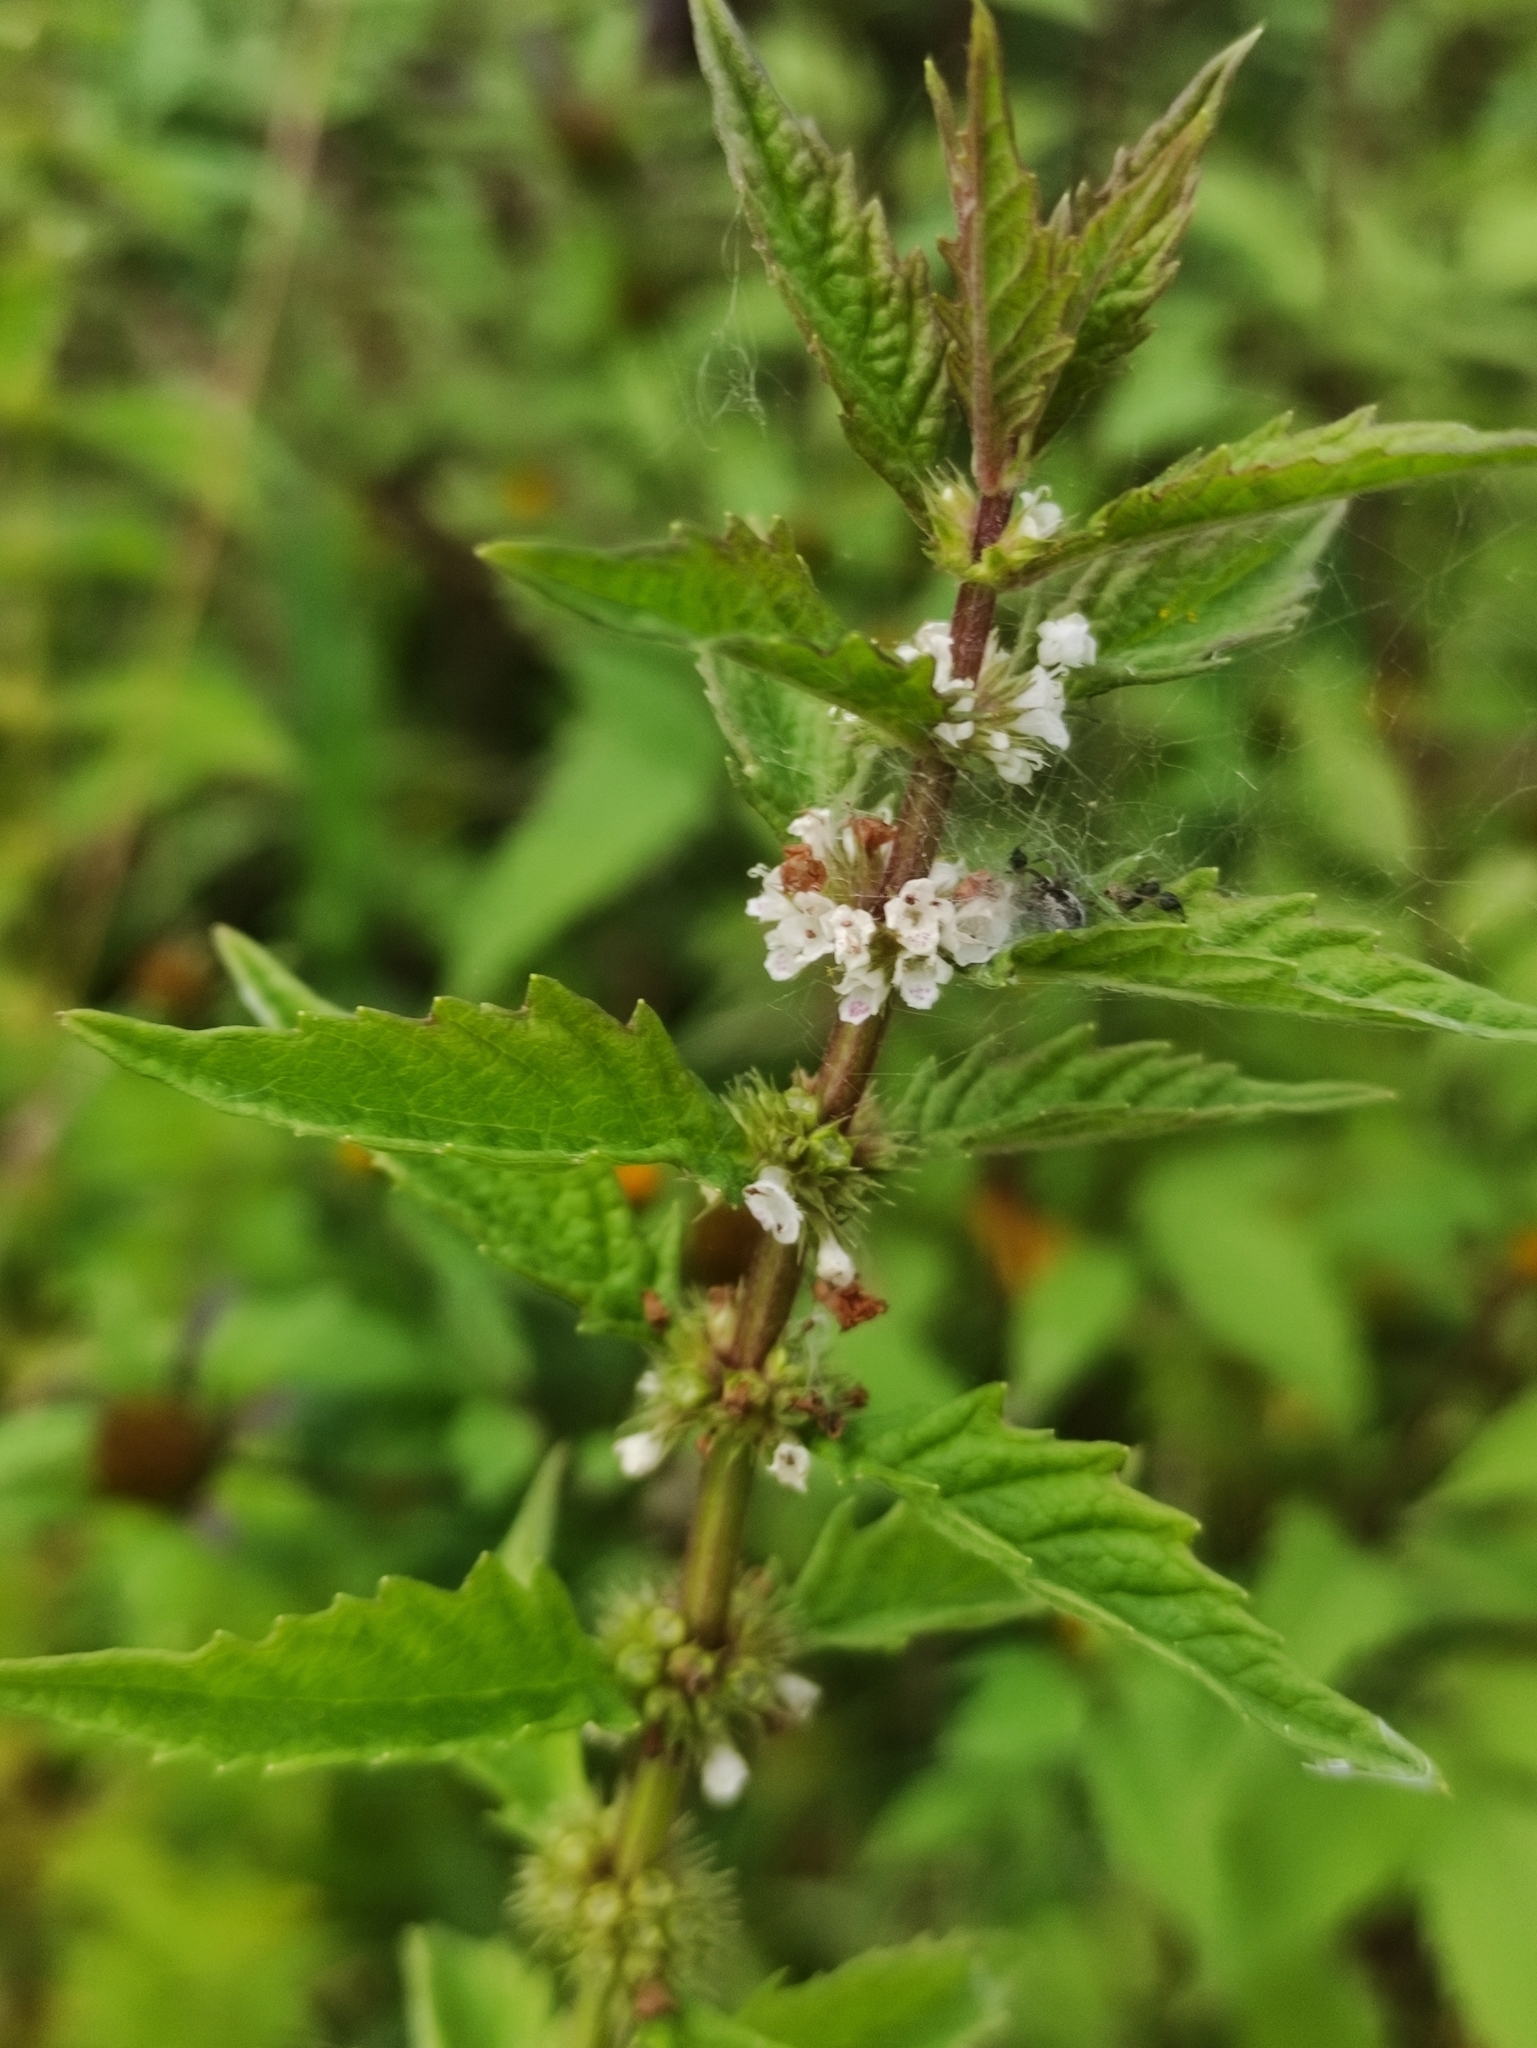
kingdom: Plantae
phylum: Tracheophyta
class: Magnoliopsida
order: Lamiales
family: Lamiaceae
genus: Lycopus
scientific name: Lycopus europaeus
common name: European bugleweed
